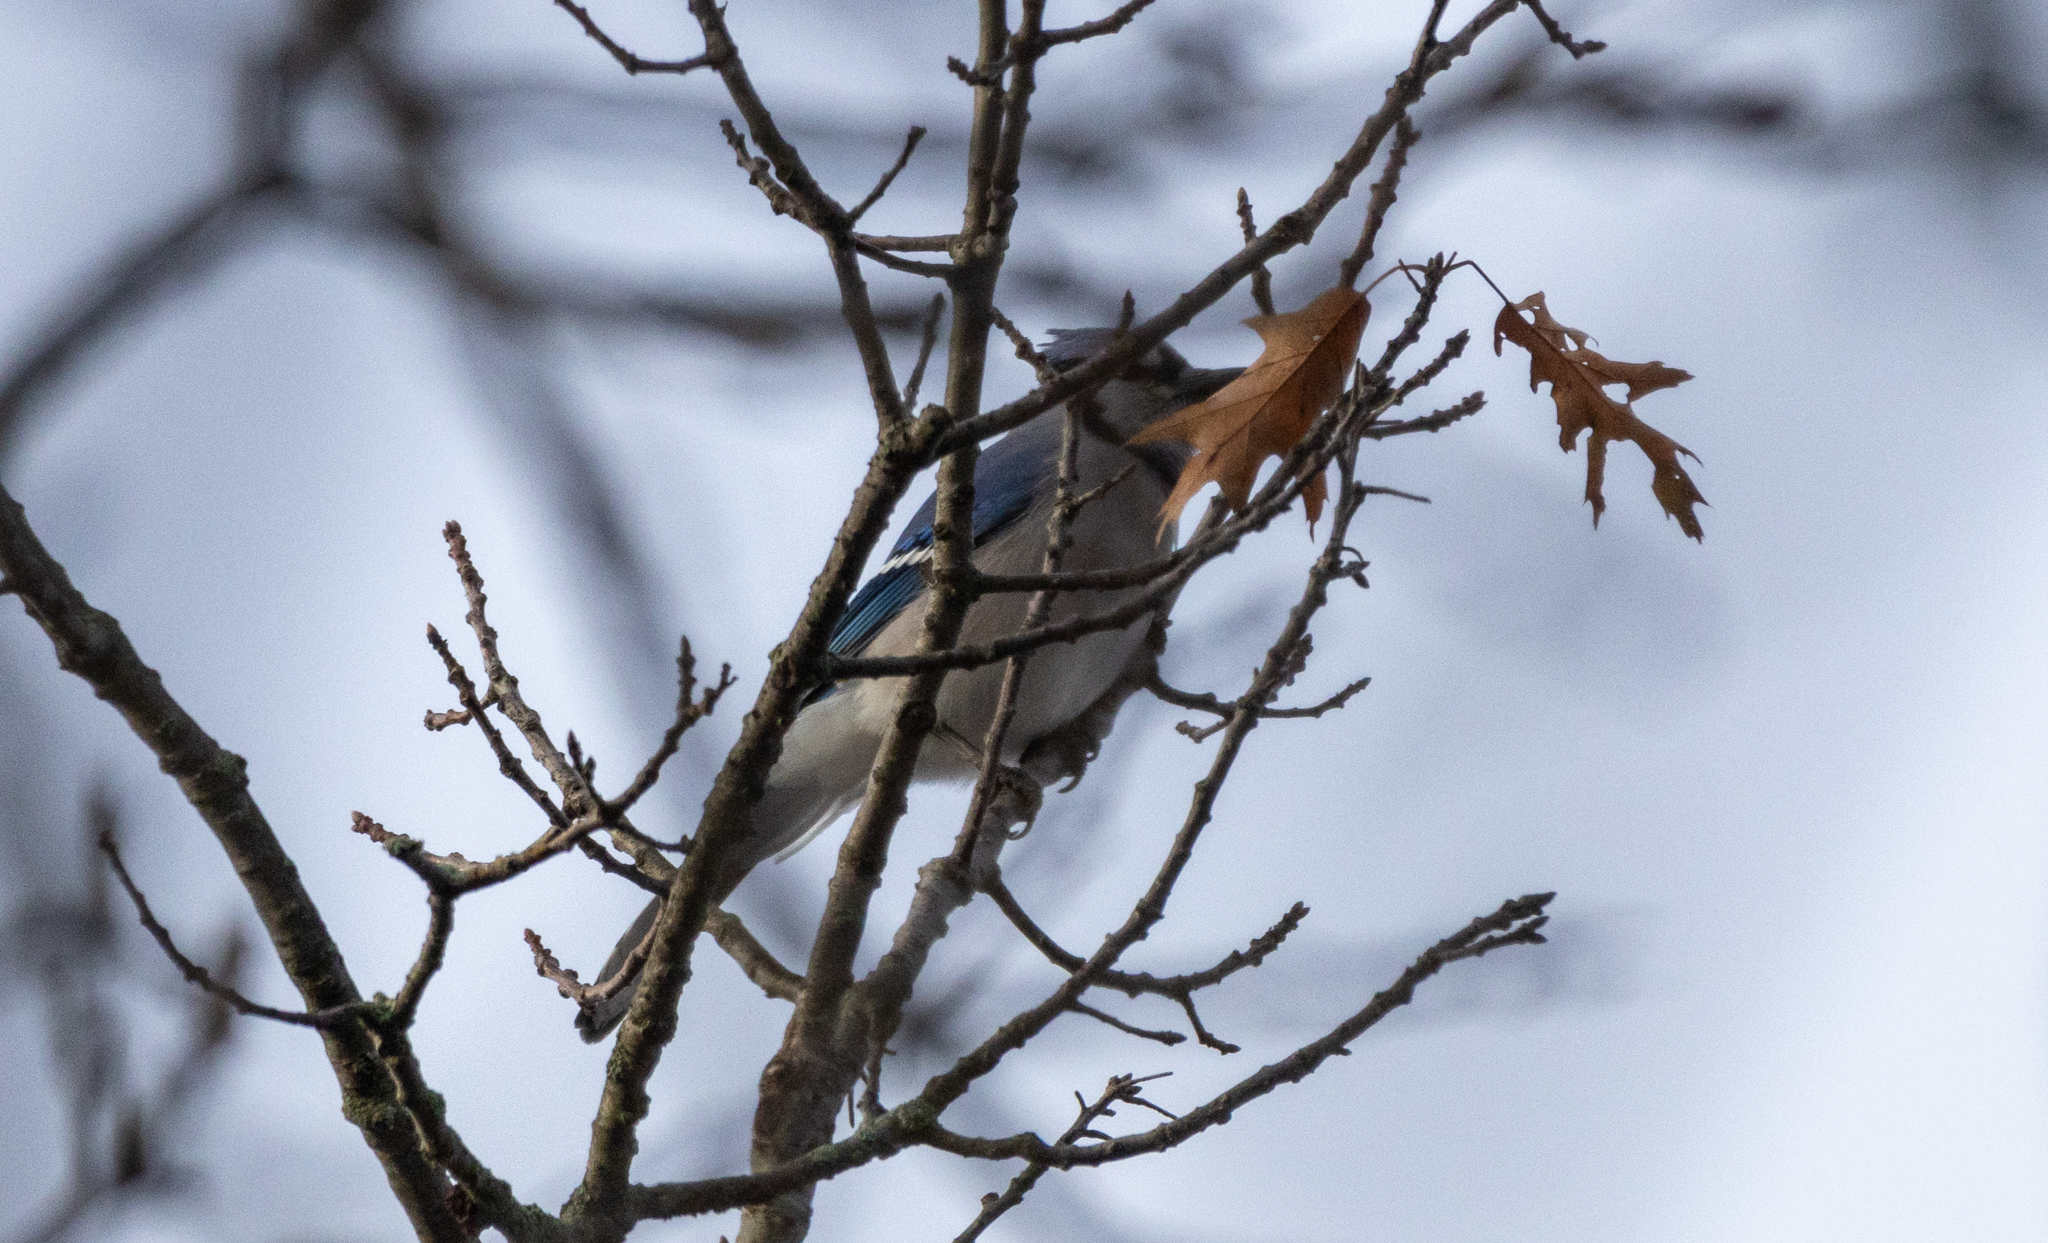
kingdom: Animalia
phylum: Chordata
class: Aves
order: Passeriformes
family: Corvidae
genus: Cyanocitta
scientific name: Cyanocitta cristata
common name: Blue jay
